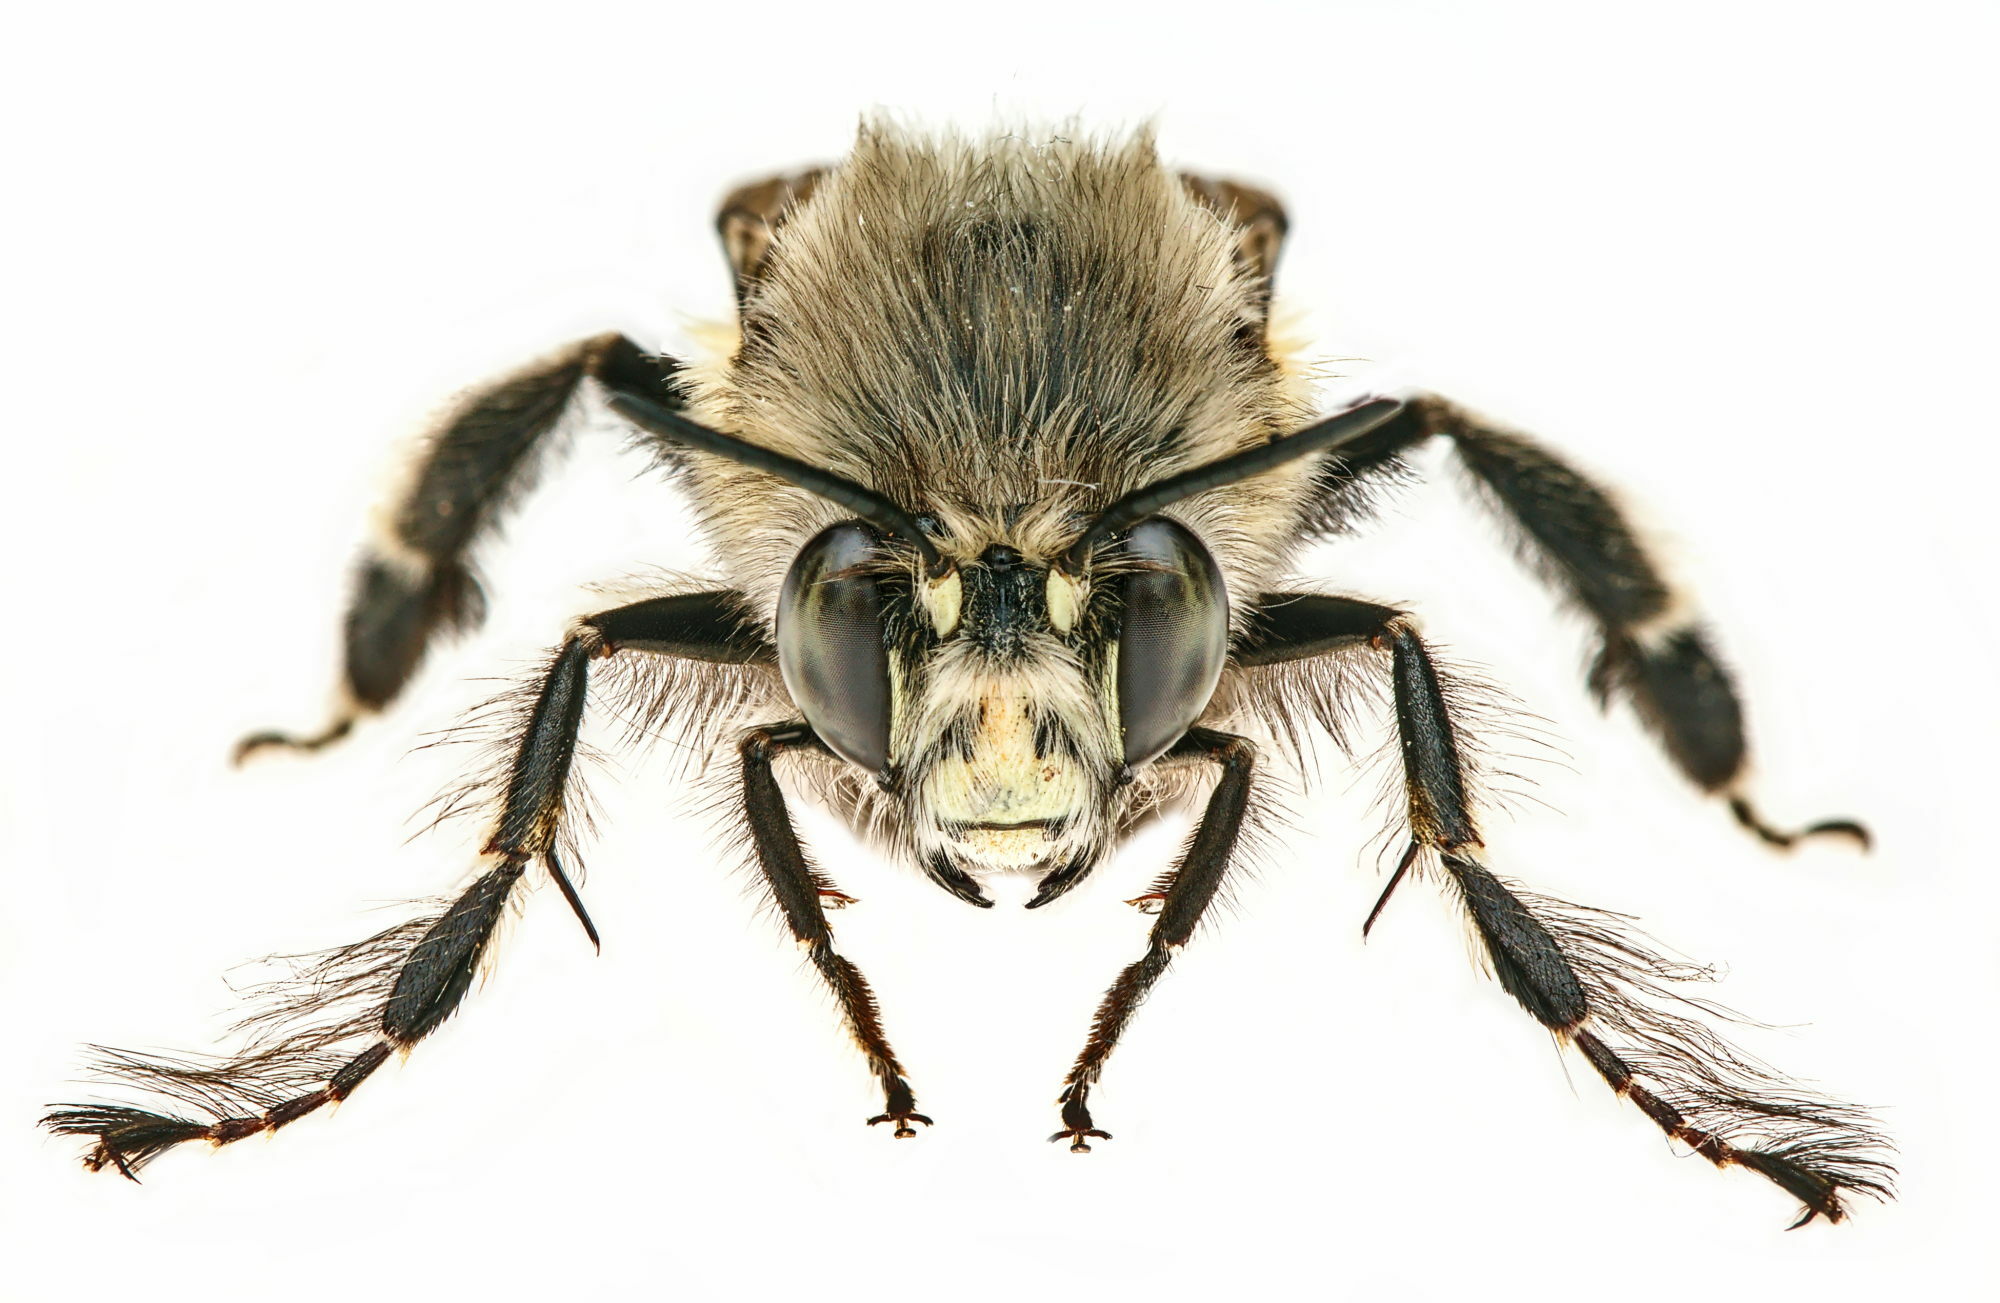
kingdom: Animalia
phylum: Arthropoda
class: Insecta
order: Hymenoptera
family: Apidae
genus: Anthophora
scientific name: Anthophora plumipes
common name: Hairy-footed flower bee
